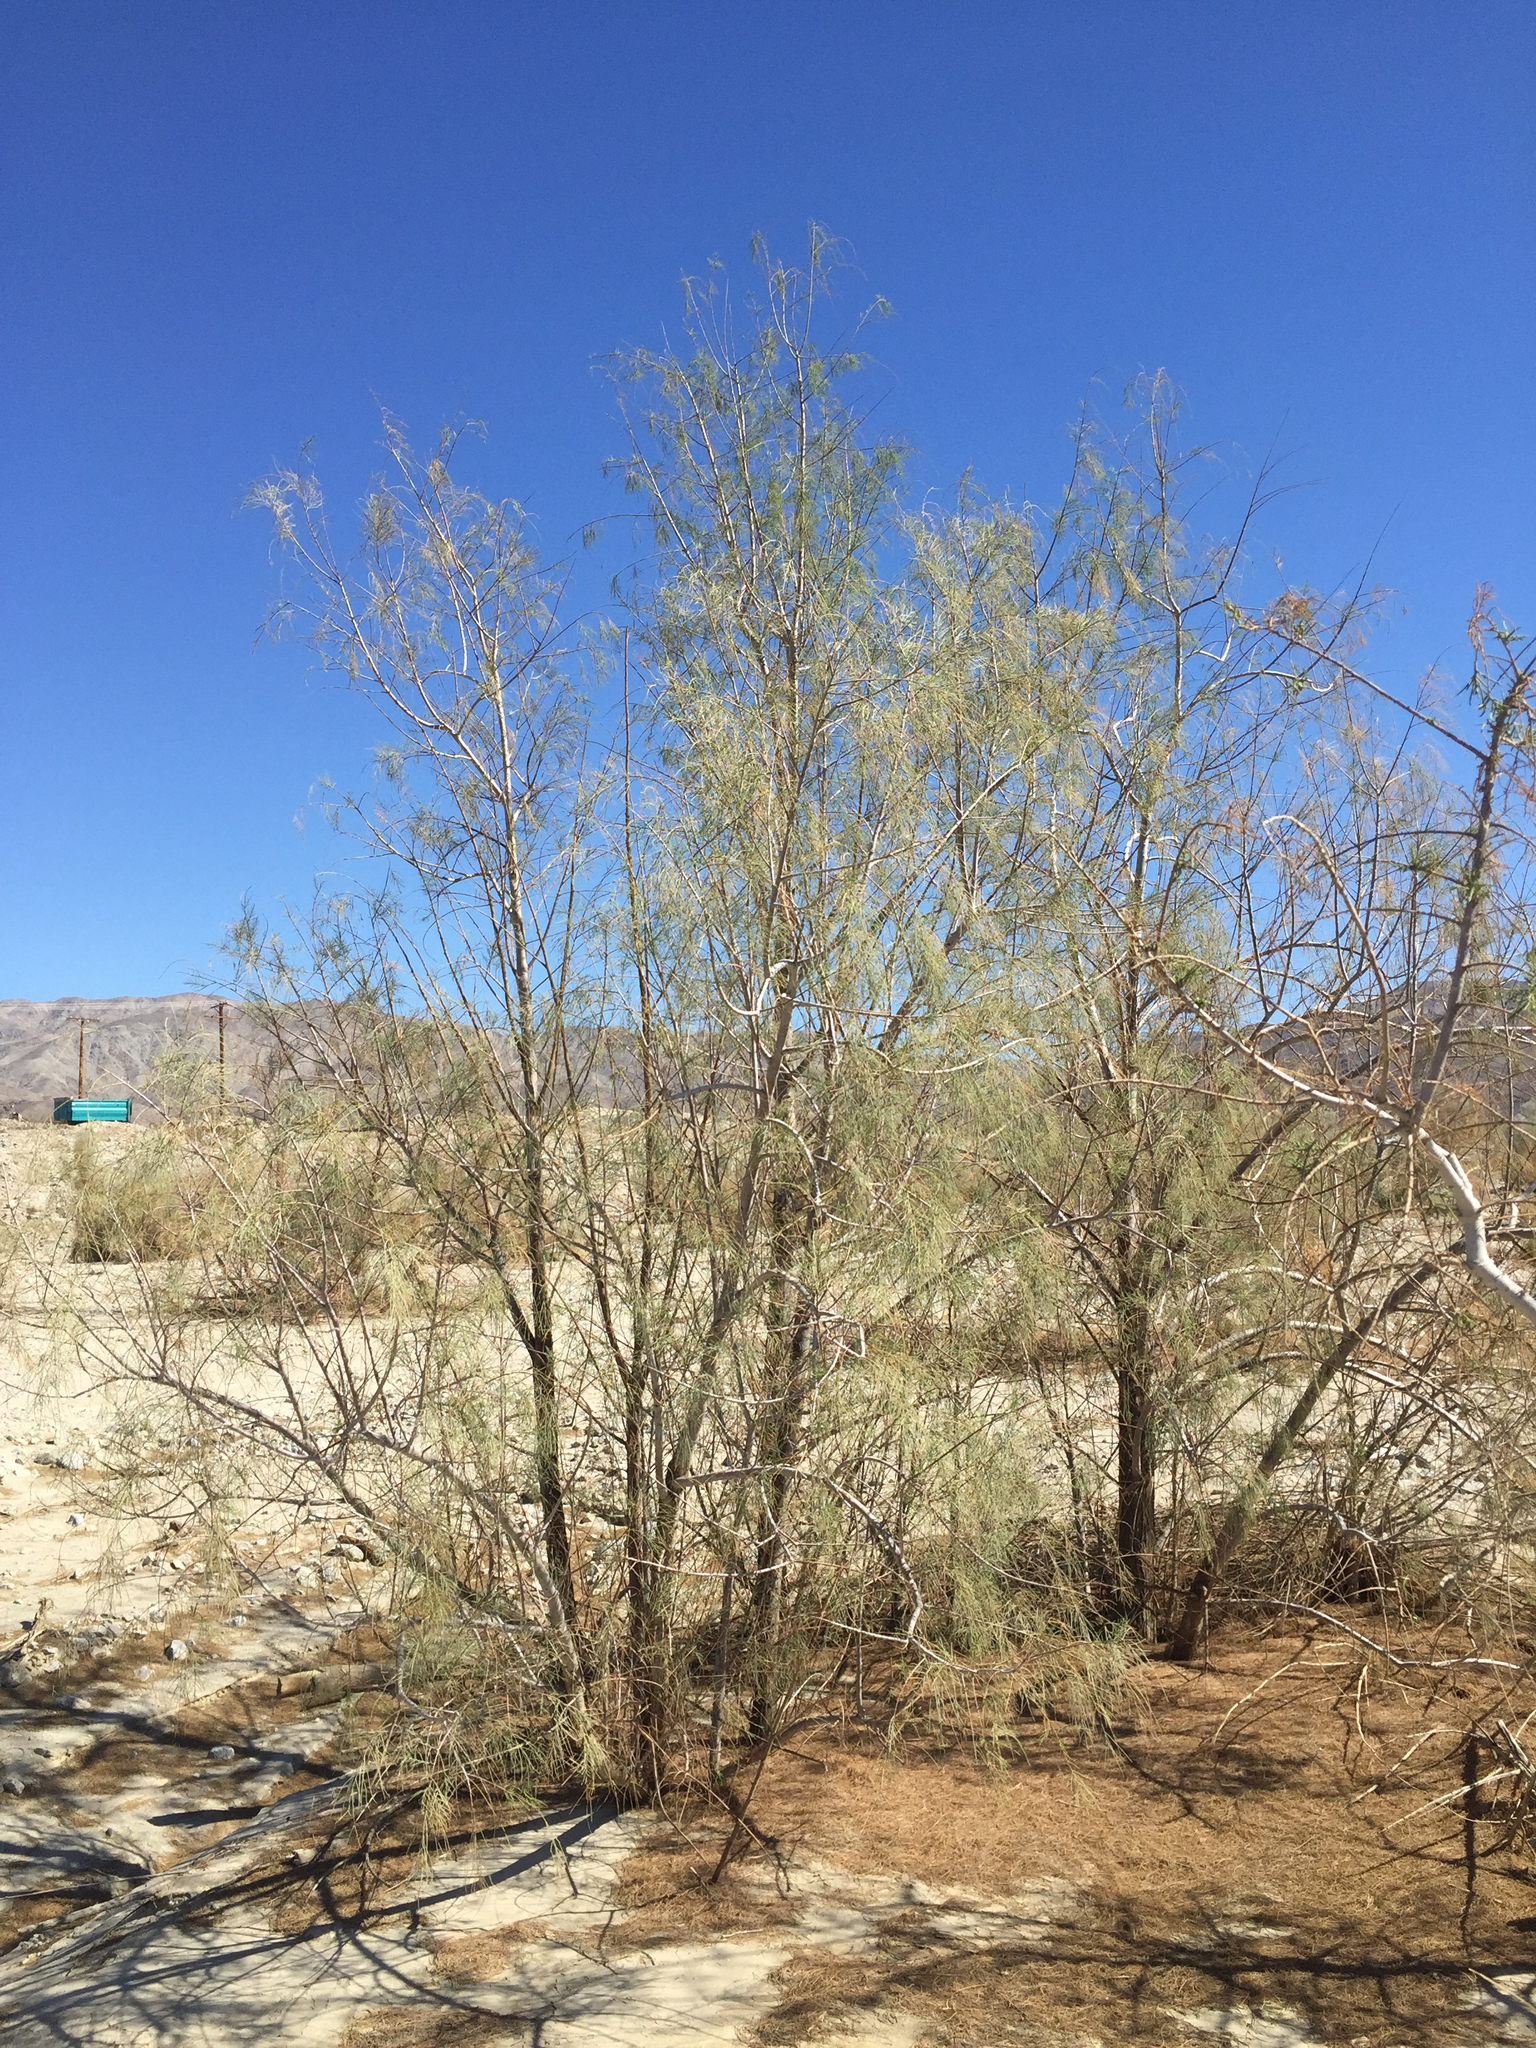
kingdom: Plantae
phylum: Tracheophyta
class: Magnoliopsida
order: Caryophyllales
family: Tamaricaceae
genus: Tamarix
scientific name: Tamarix aphylla
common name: Athel tamarisk
